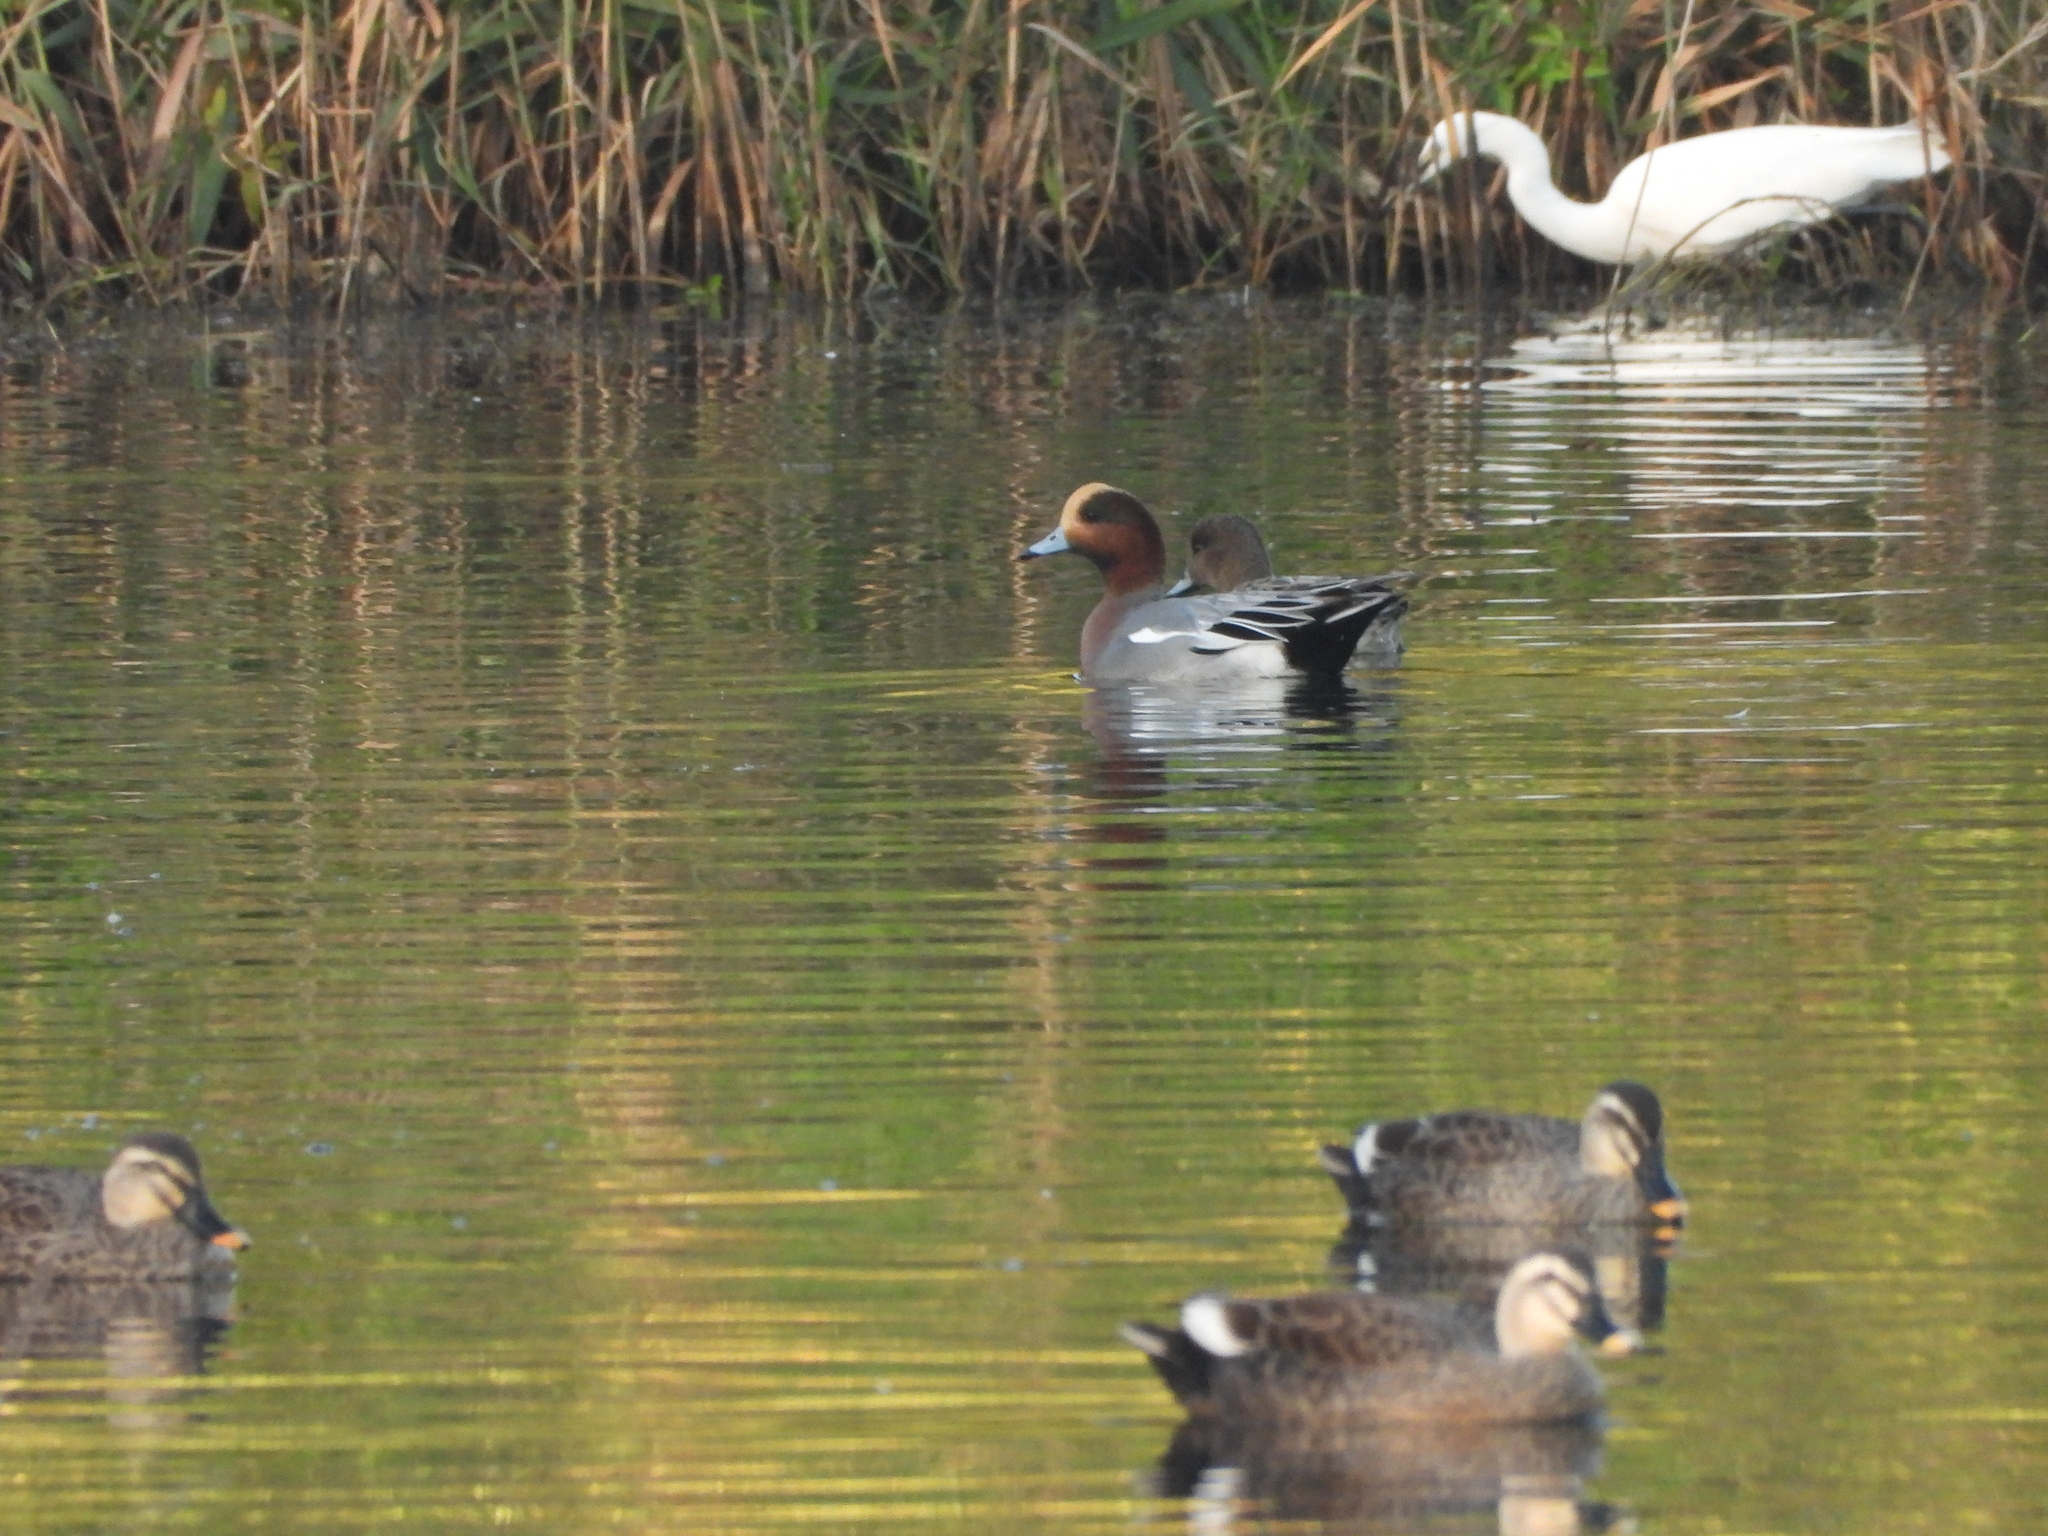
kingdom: Animalia
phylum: Chordata
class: Aves
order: Anseriformes
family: Anatidae
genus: Mareca
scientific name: Mareca penelope
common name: Eurasian wigeon
